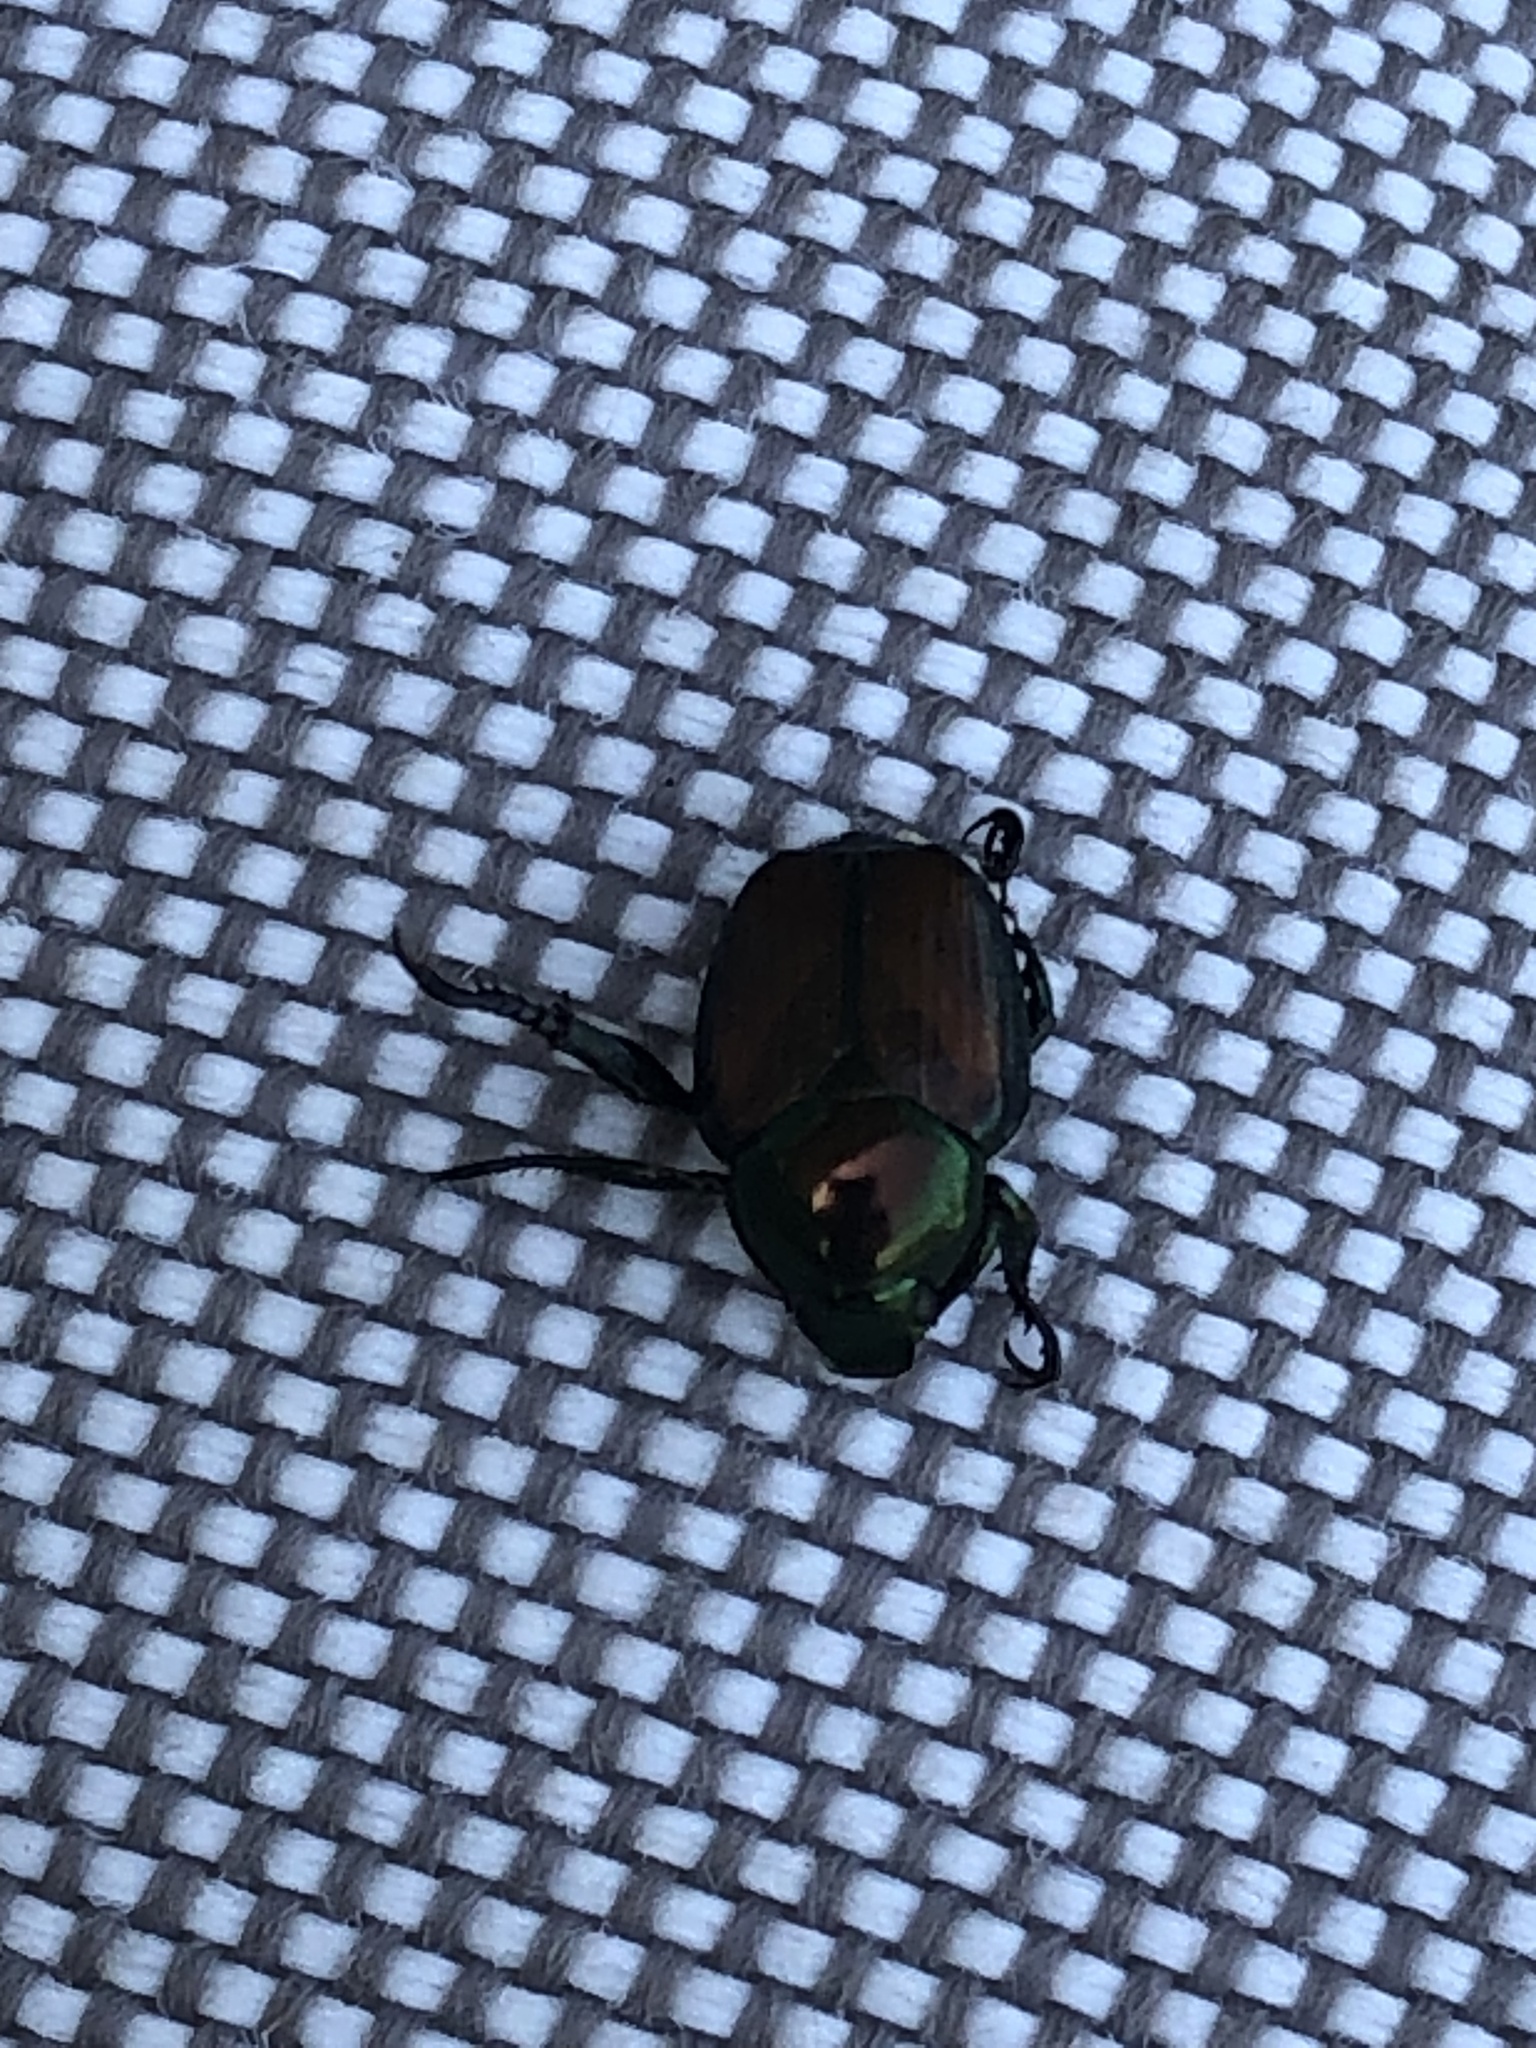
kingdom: Animalia
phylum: Arthropoda
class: Insecta
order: Coleoptera
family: Scarabaeidae
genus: Popillia
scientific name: Popillia japonica
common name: Japanese beetle
